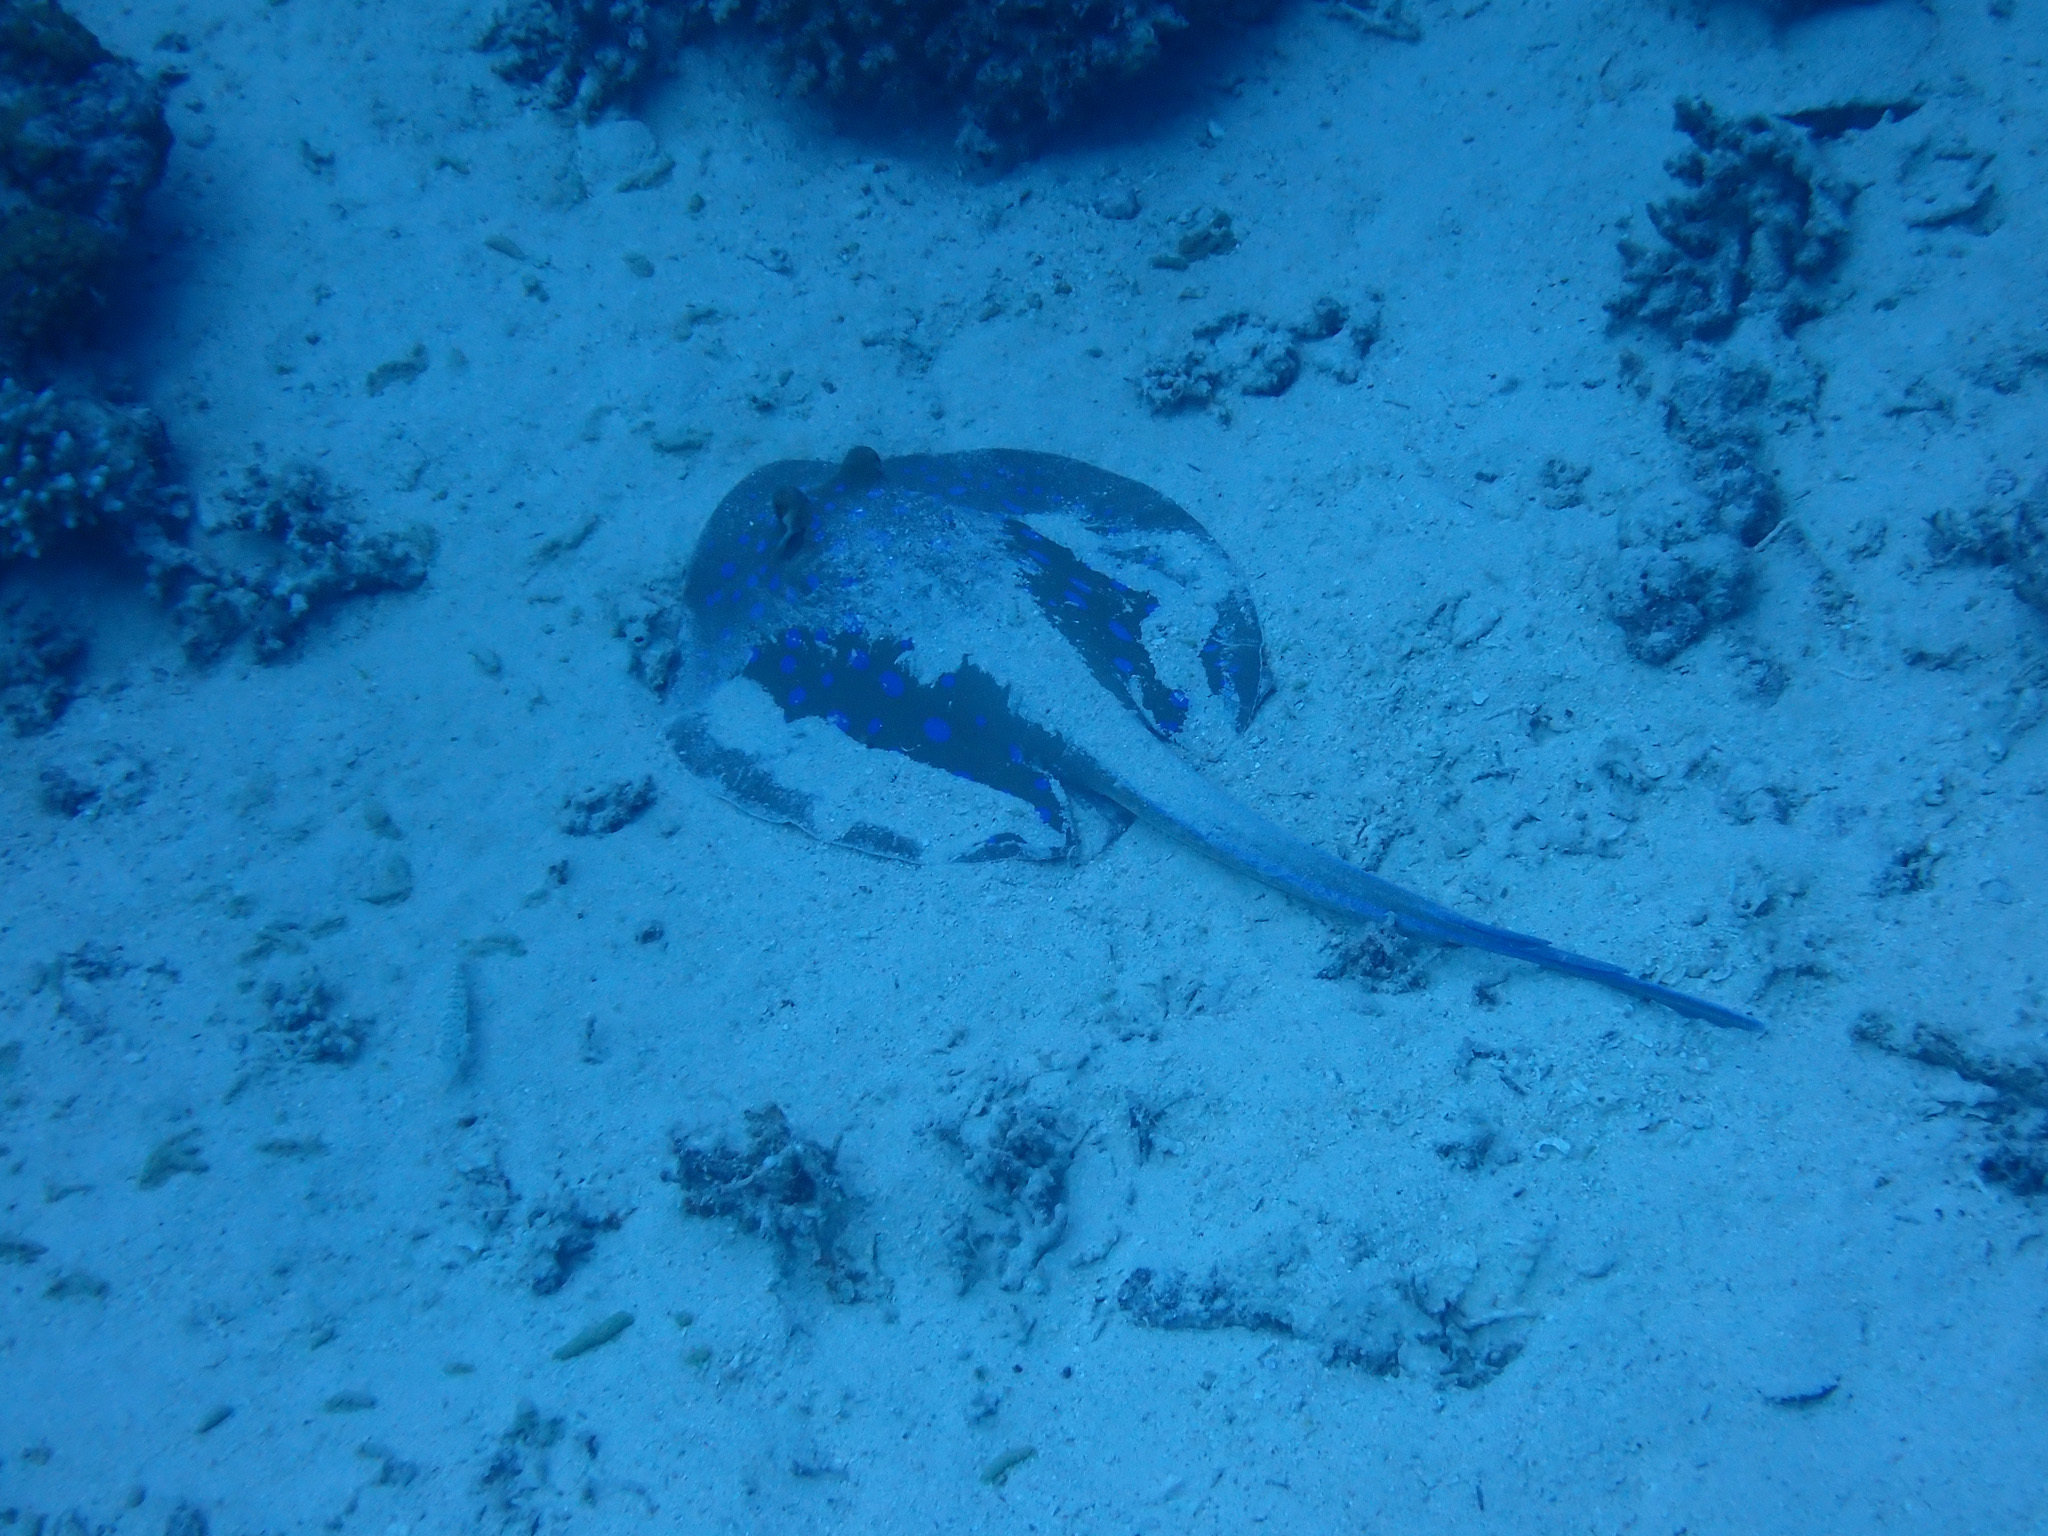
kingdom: Animalia
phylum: Chordata
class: Elasmobranchii
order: Myliobatiformes
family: Dasyatidae
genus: Taeniura
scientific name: Taeniura lymma
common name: Bluespotted ribbontail ray
